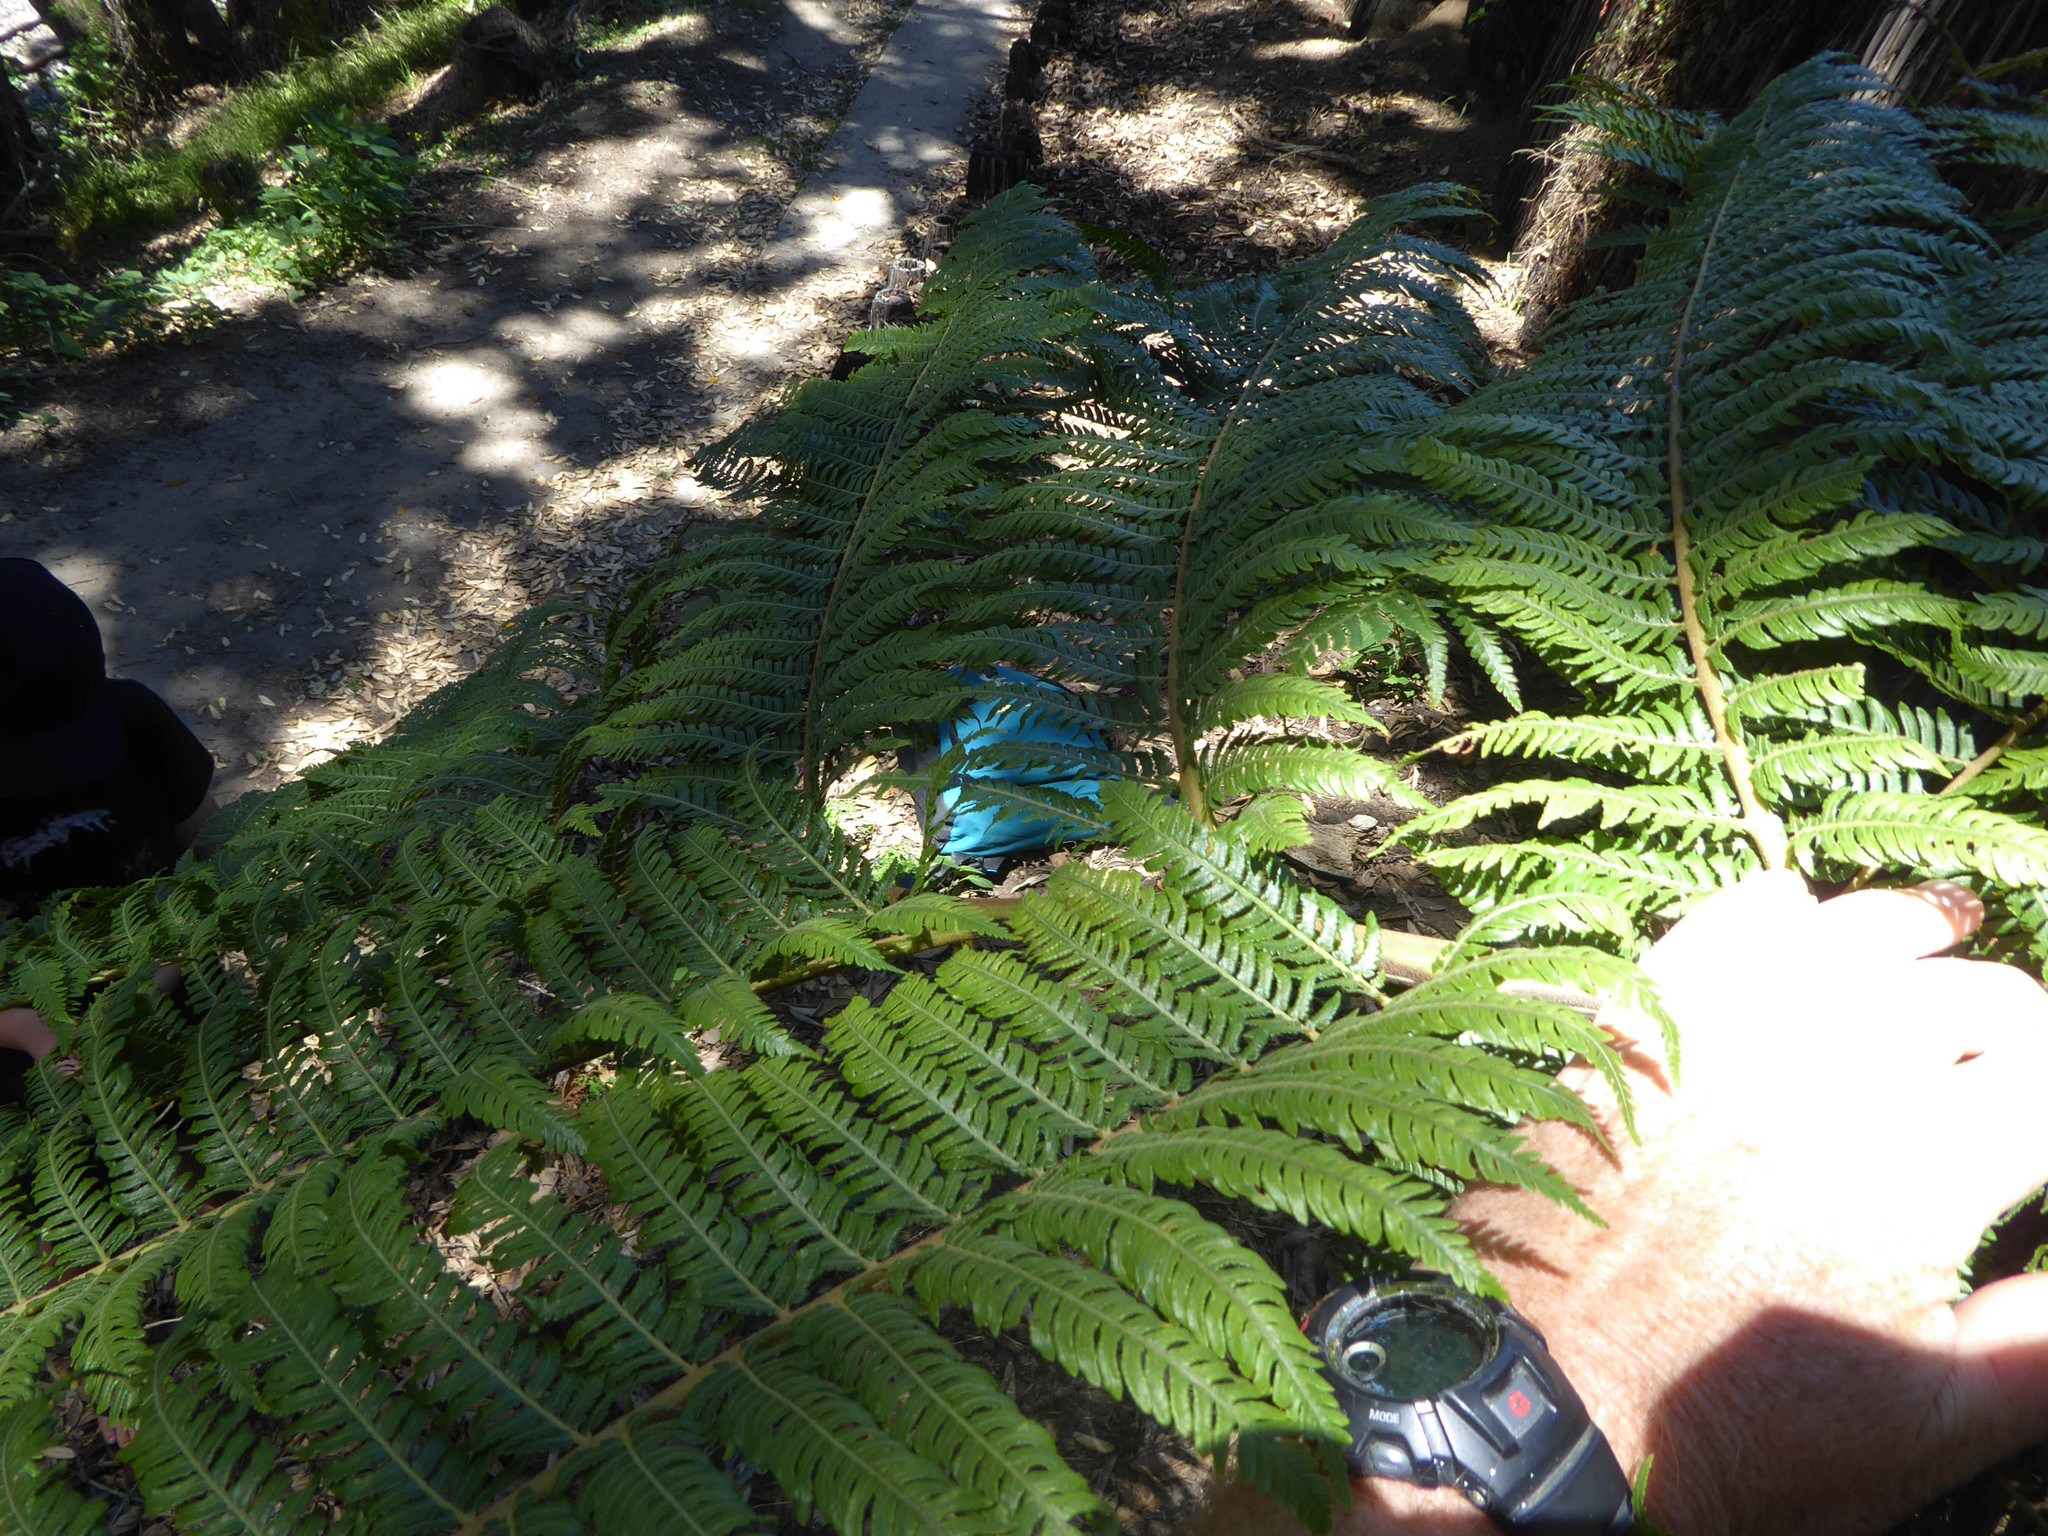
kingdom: Plantae
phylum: Tracheophyta
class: Polypodiopsida
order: Cyatheales
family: Cyatheaceae
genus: Sphaeropteris
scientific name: Sphaeropteris cooperi
